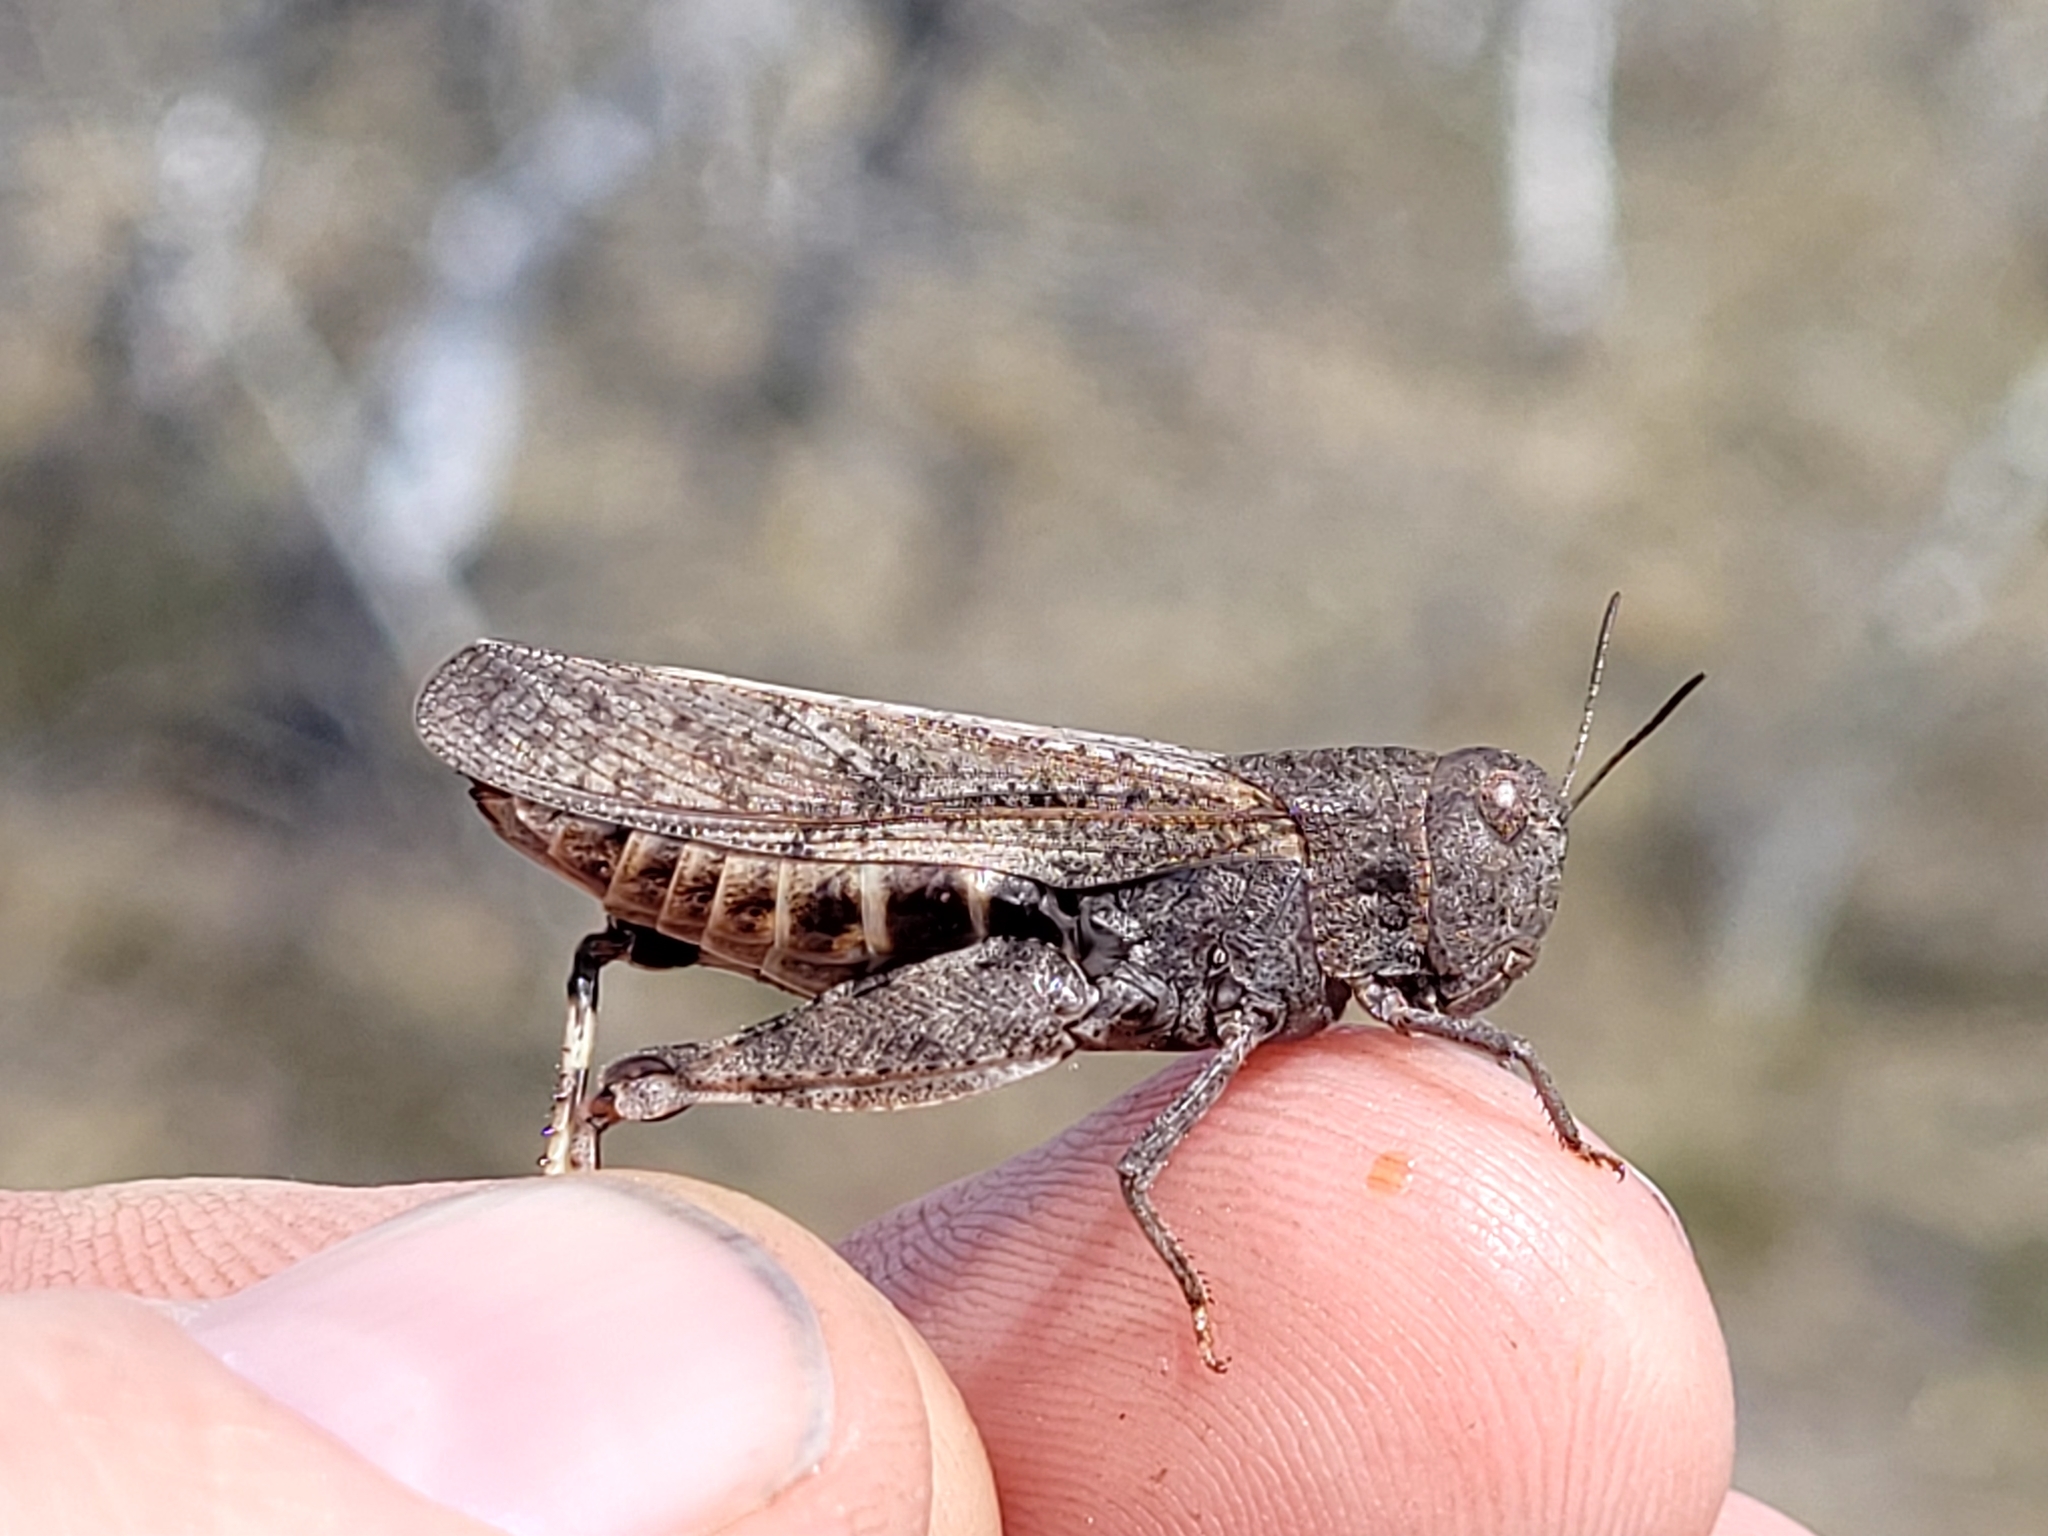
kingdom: Animalia
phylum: Arthropoda
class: Insecta
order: Orthoptera
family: Acrididae
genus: Arphia
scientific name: Arphia conspersa
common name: Speckle-winged rangeland grasshopper
